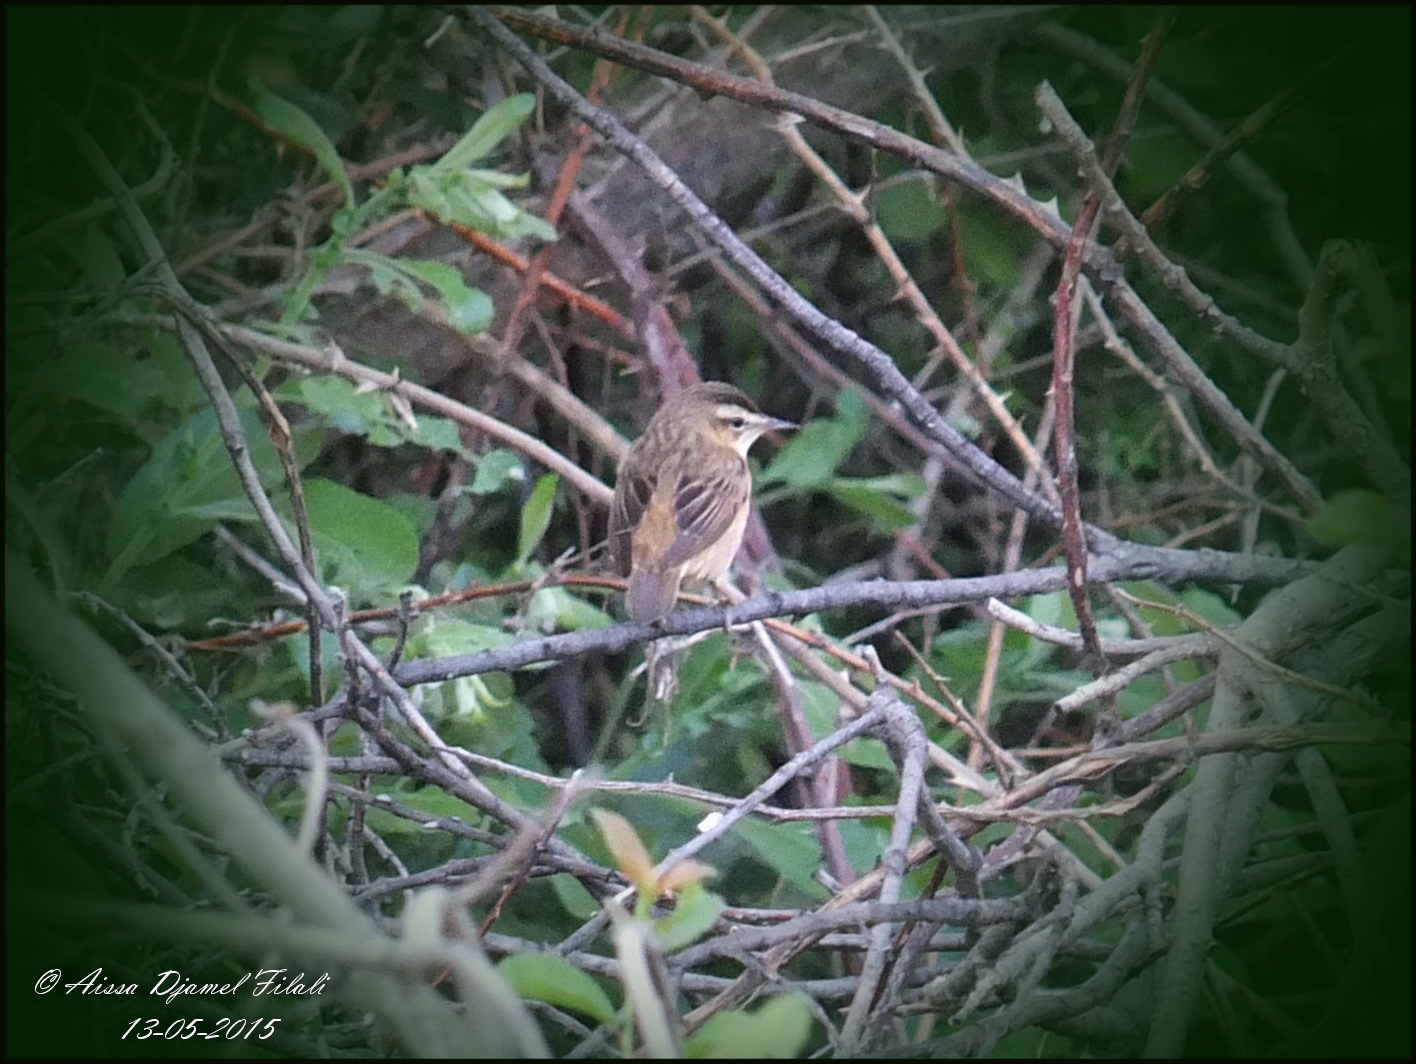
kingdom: Animalia
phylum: Chordata
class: Aves
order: Passeriformes
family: Acrocephalidae
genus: Acrocephalus
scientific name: Acrocephalus schoenobaenus
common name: Sedge warbler
